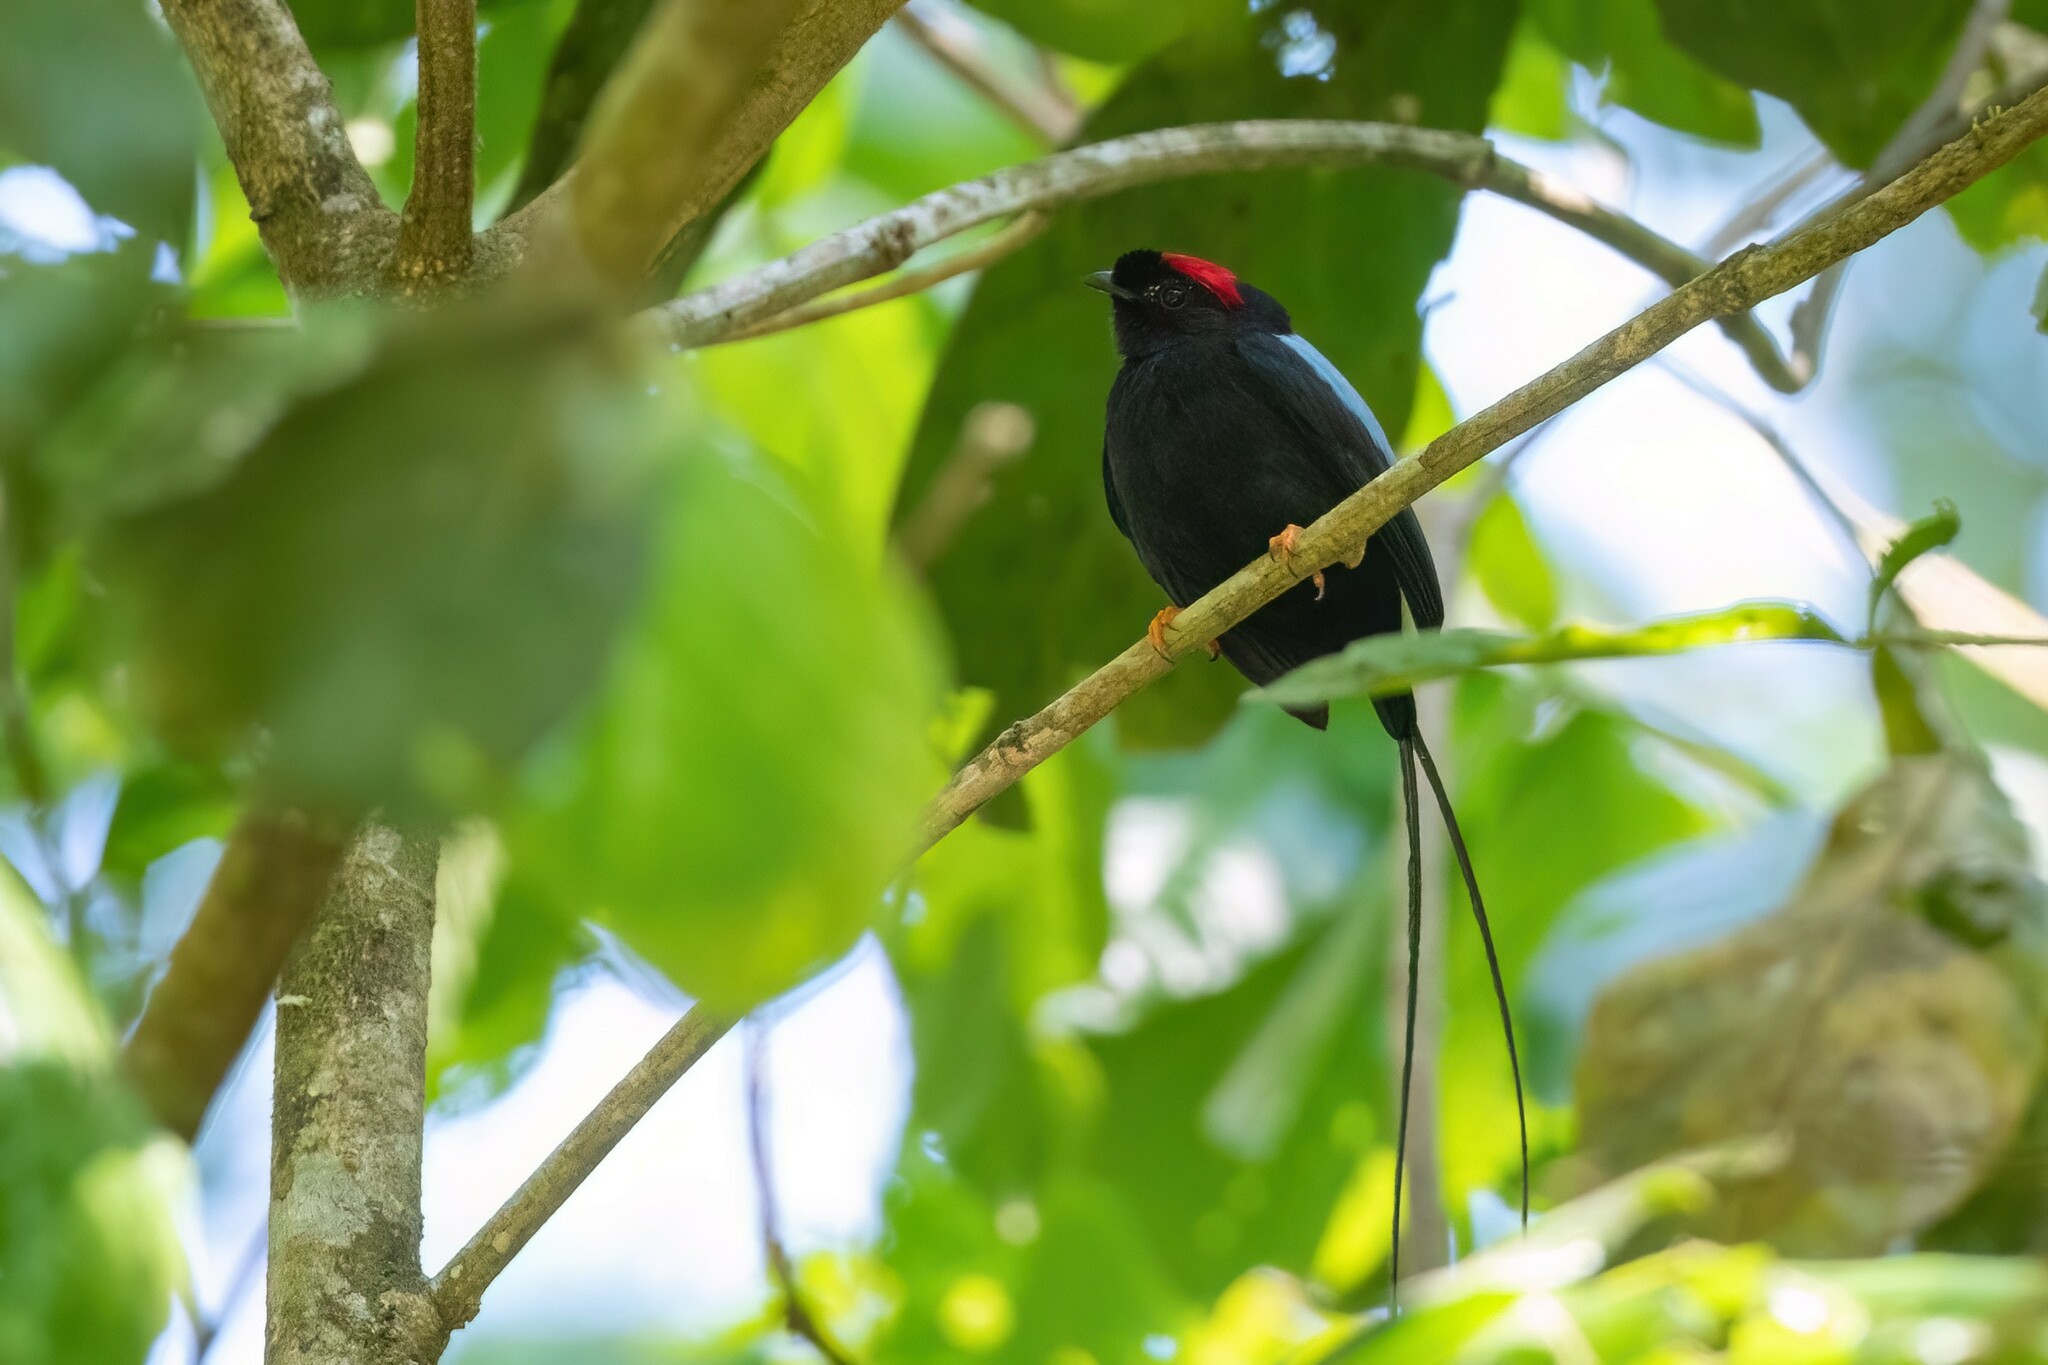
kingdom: Animalia
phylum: Chordata
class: Aves
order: Passeriformes
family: Pipridae
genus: Chiroxiphia
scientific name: Chiroxiphia linearis
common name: Long-tailed manakin
